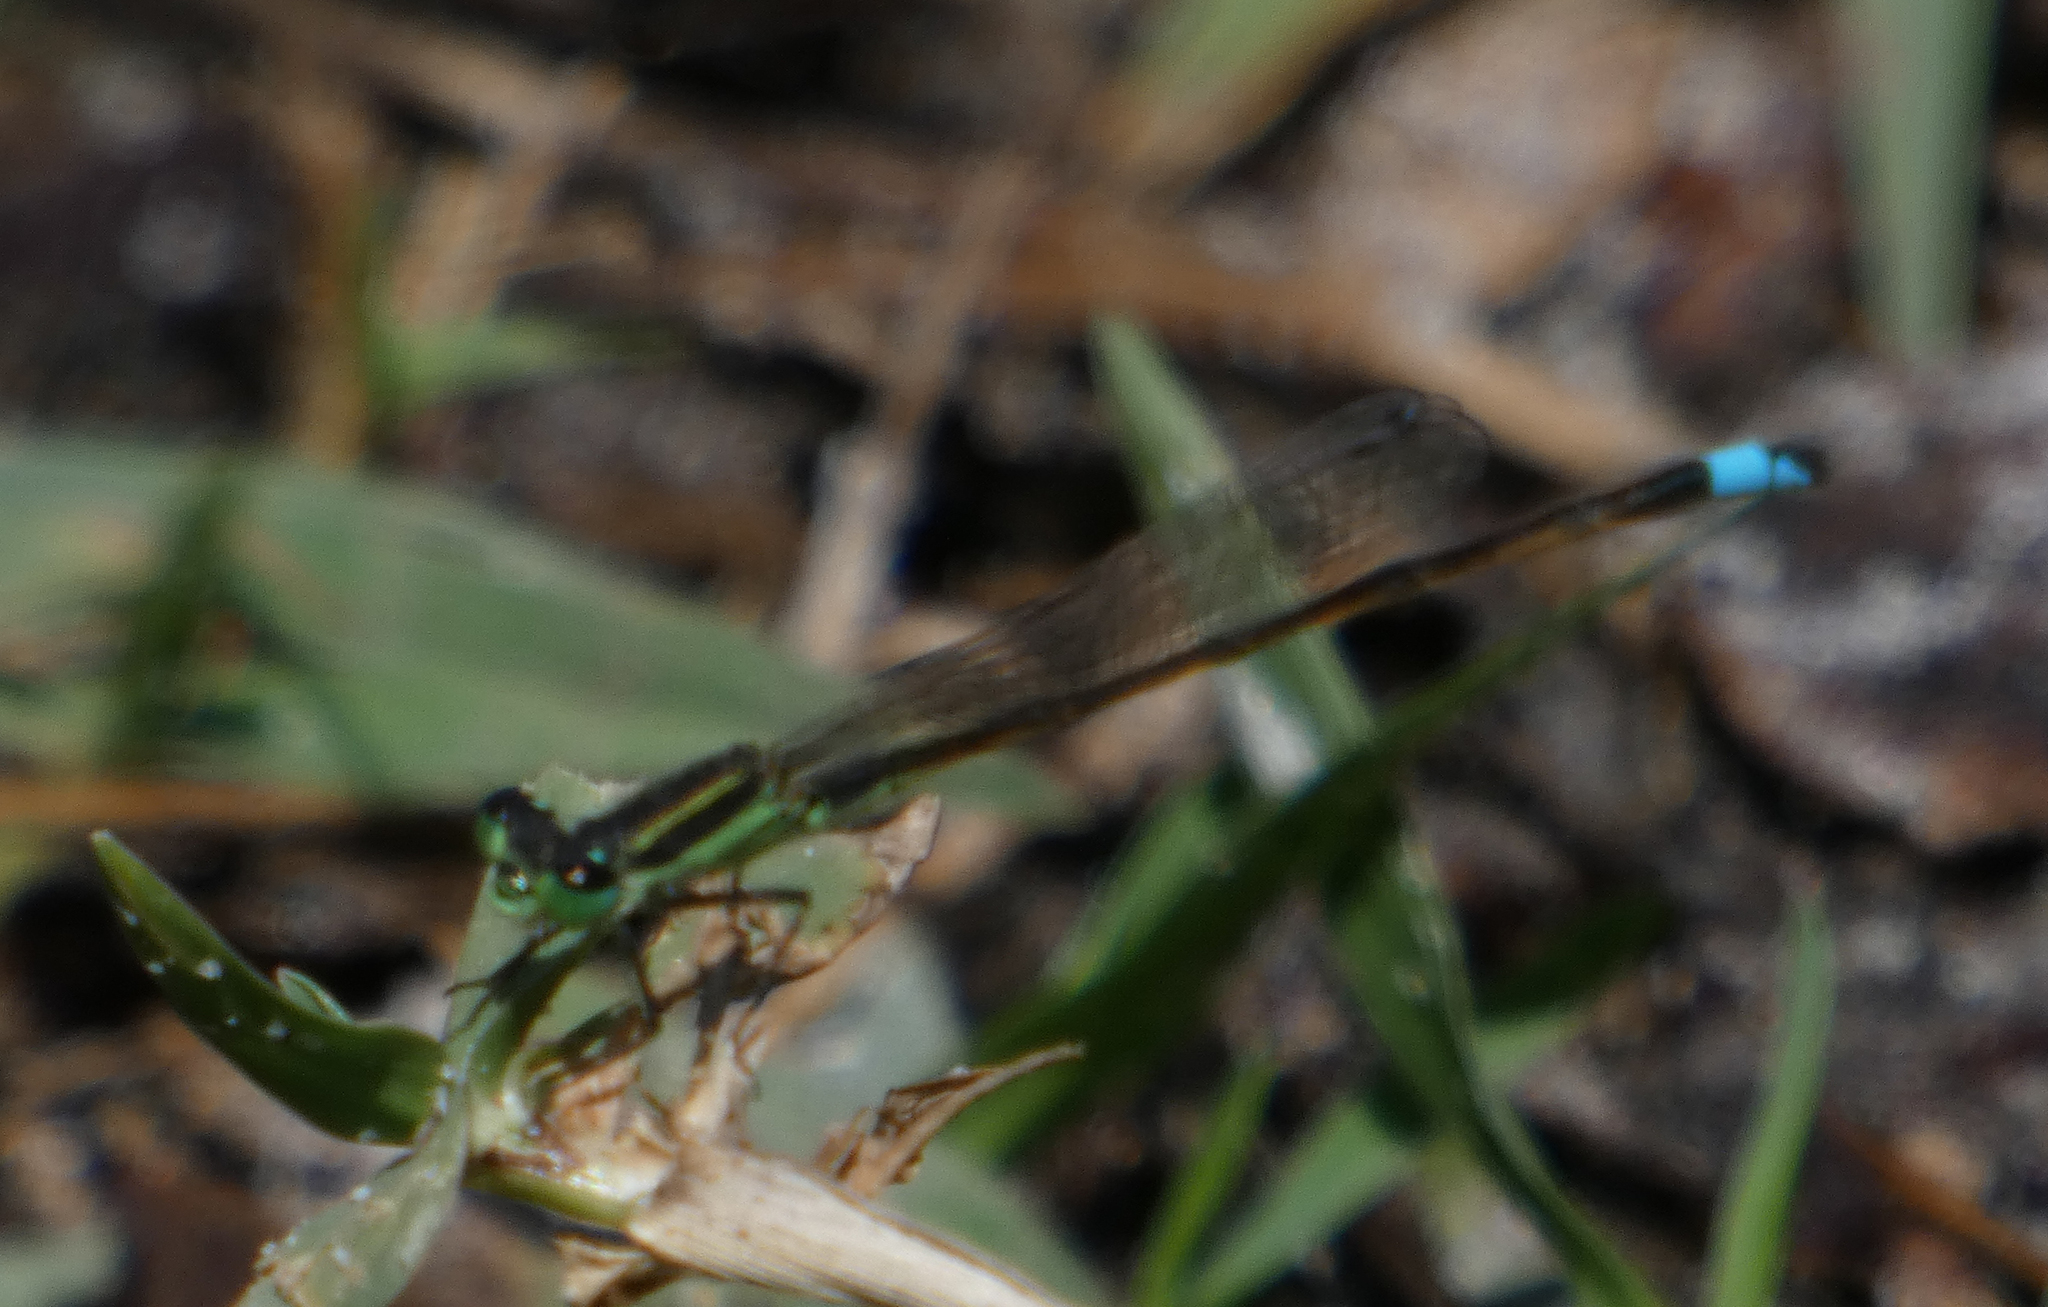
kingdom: Animalia
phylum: Arthropoda
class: Insecta
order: Odonata
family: Coenagrionidae
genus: Ischnura
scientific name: Ischnura ramburii
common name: Rambur's forktail
